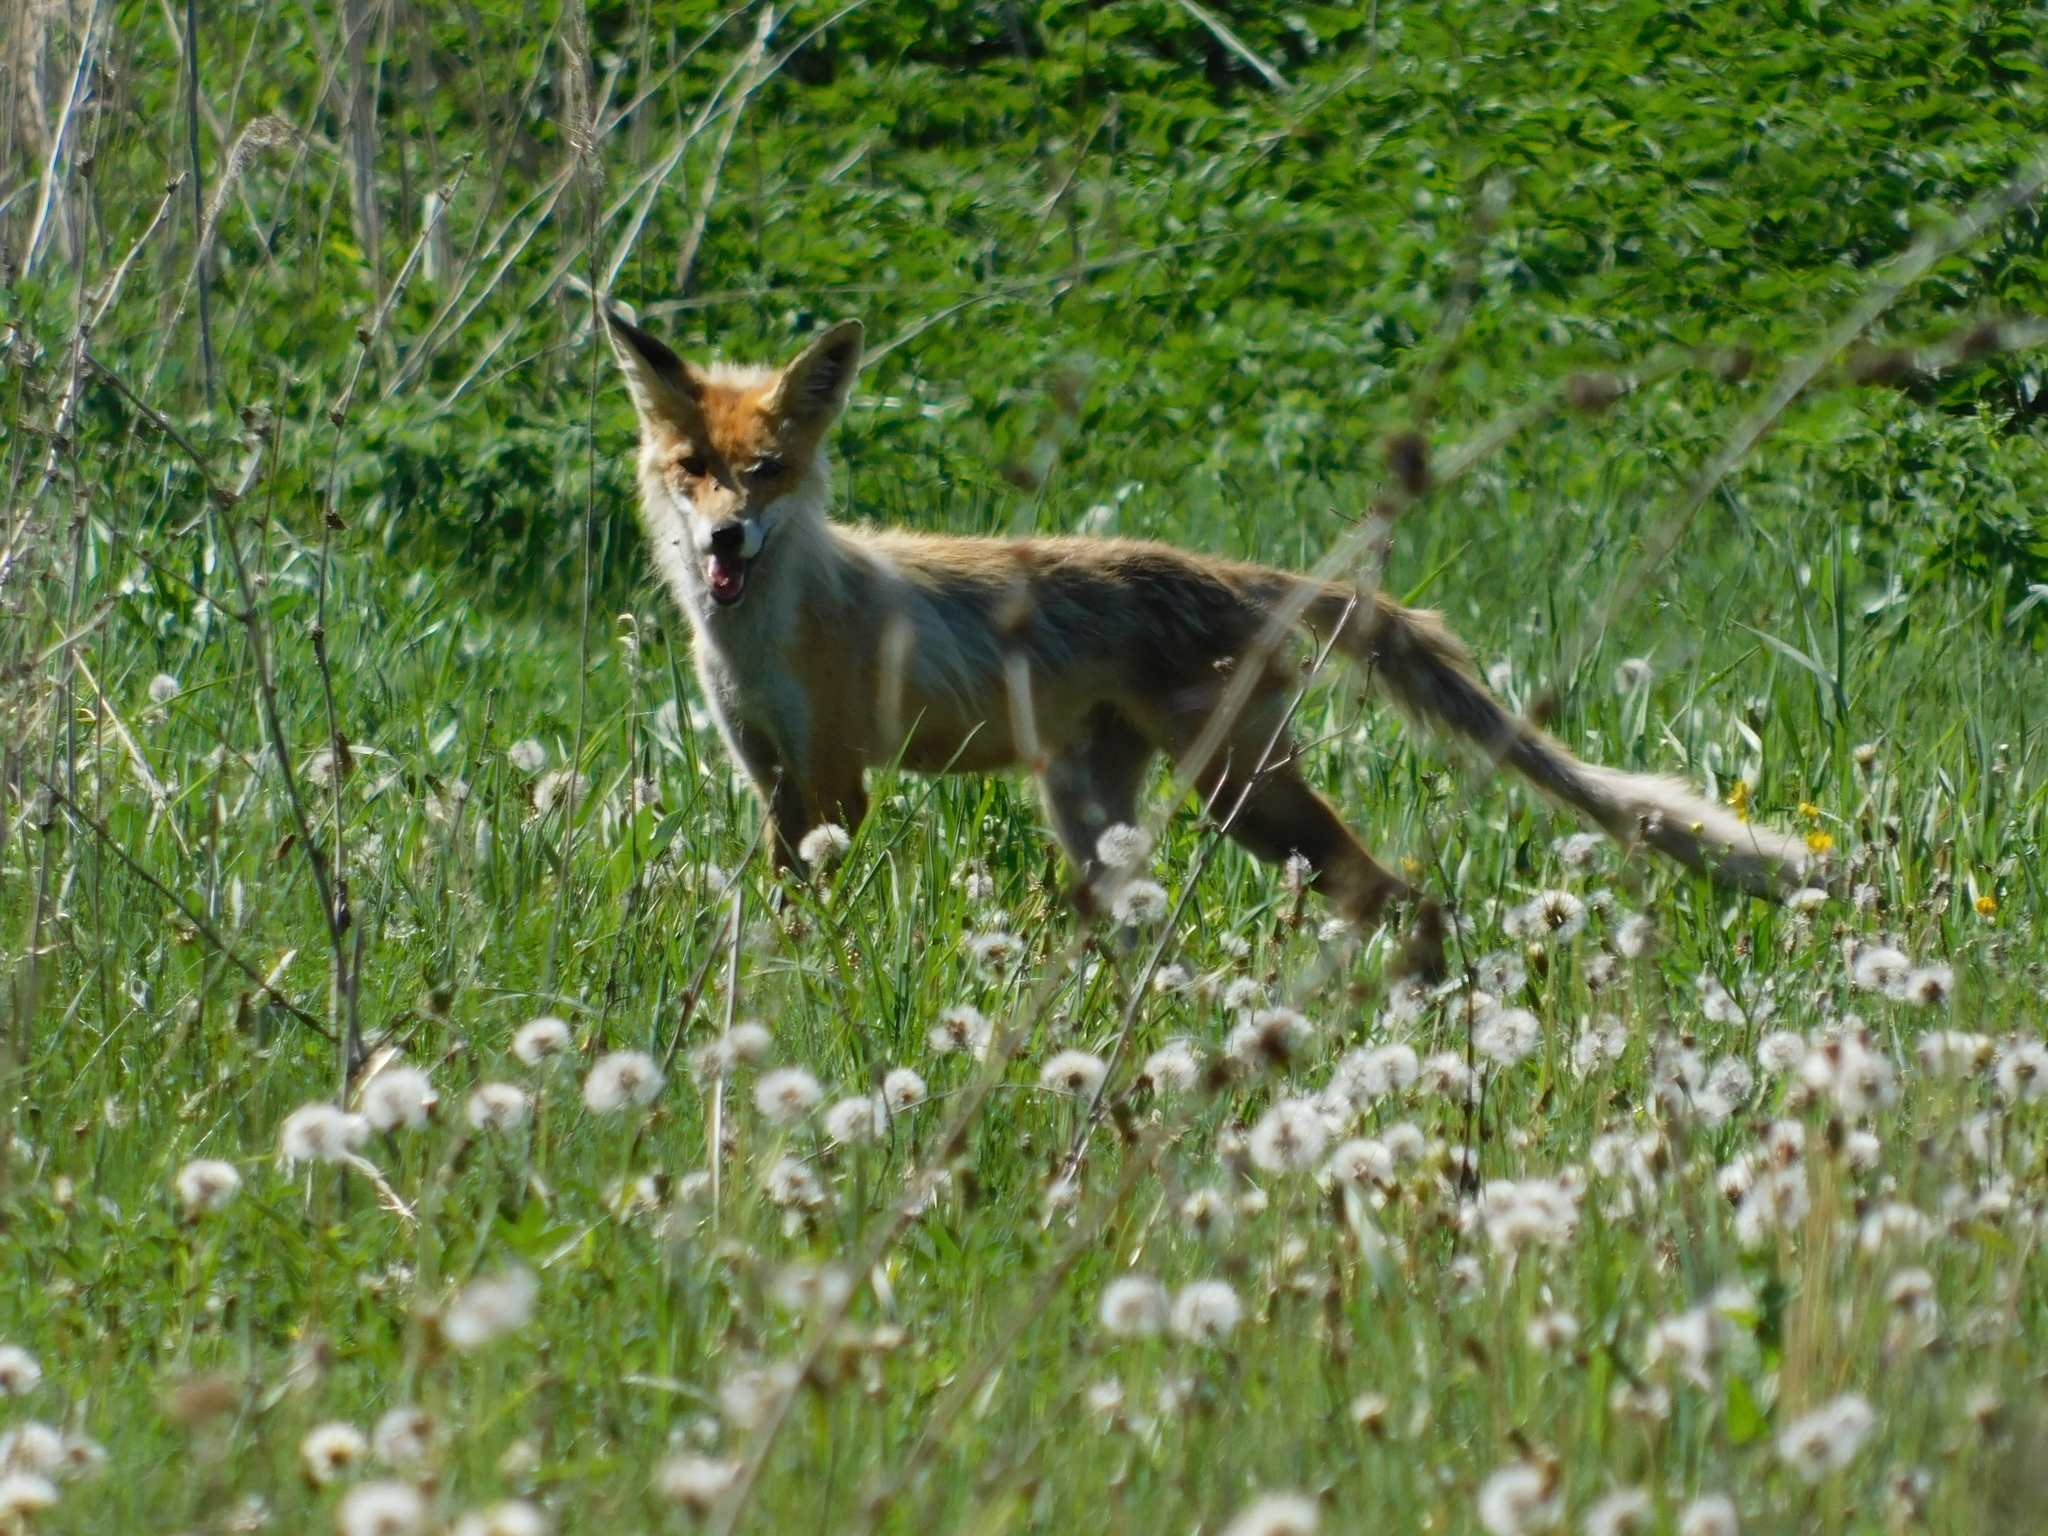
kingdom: Animalia
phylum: Chordata
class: Mammalia
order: Carnivora
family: Canidae
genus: Vulpes
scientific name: Vulpes vulpes
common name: Red fox
